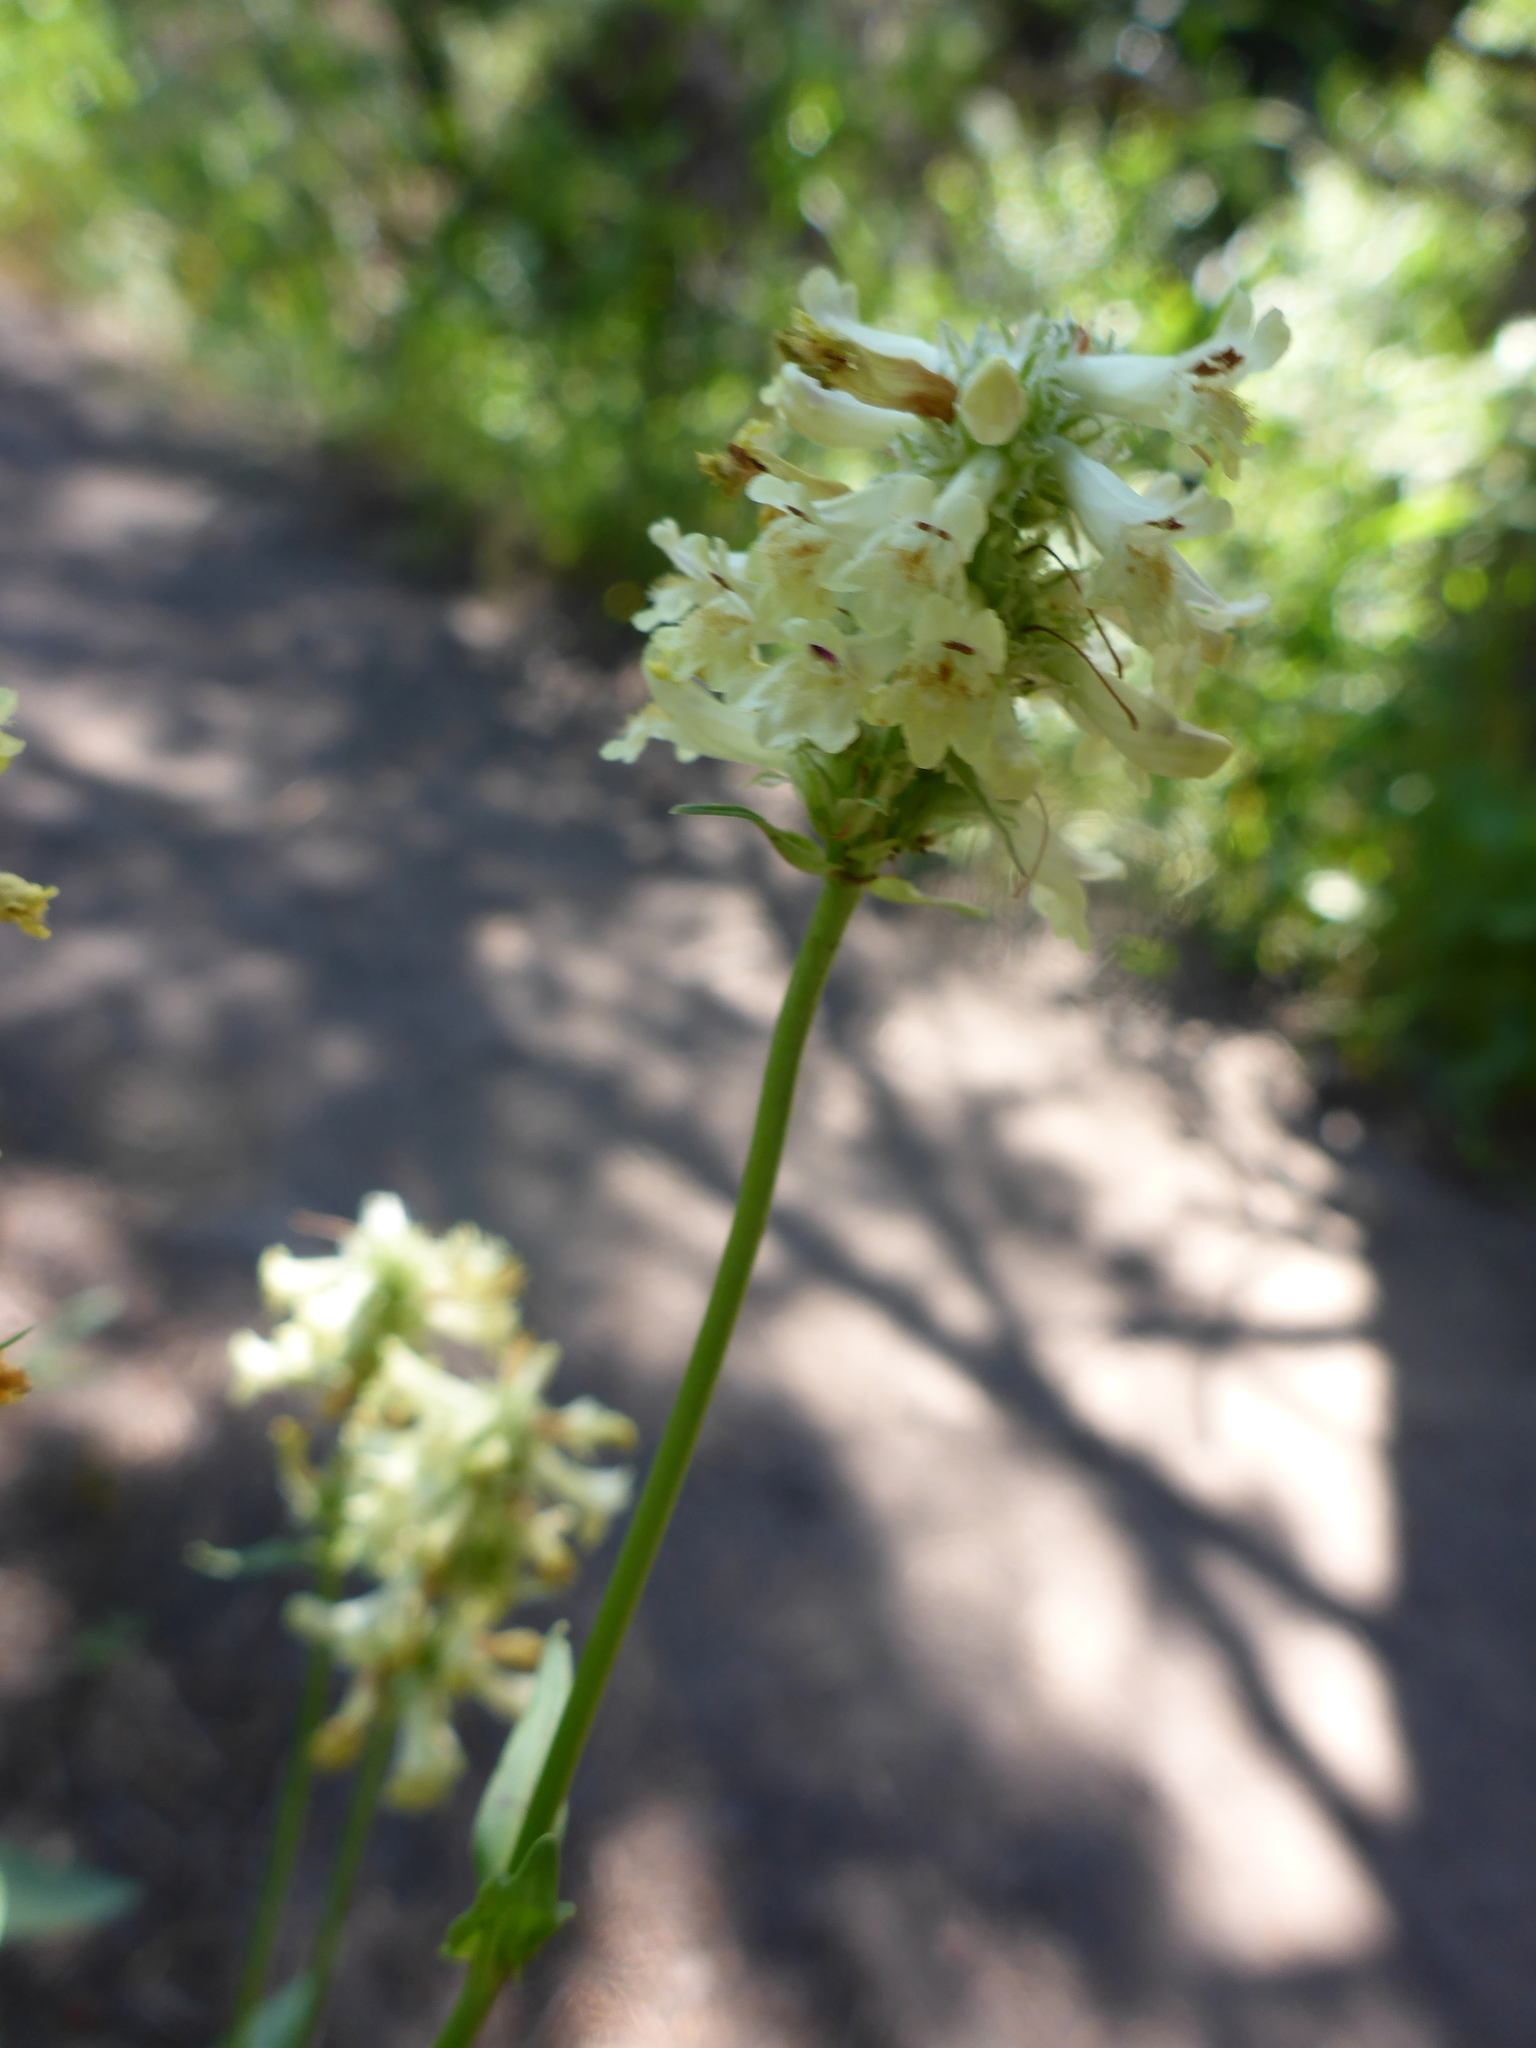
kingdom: Plantae
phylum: Tracheophyta
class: Magnoliopsida
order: Lamiales
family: Plantaginaceae
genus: Penstemon
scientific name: Penstemon confertus
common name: Lesser yellow beardtongue
